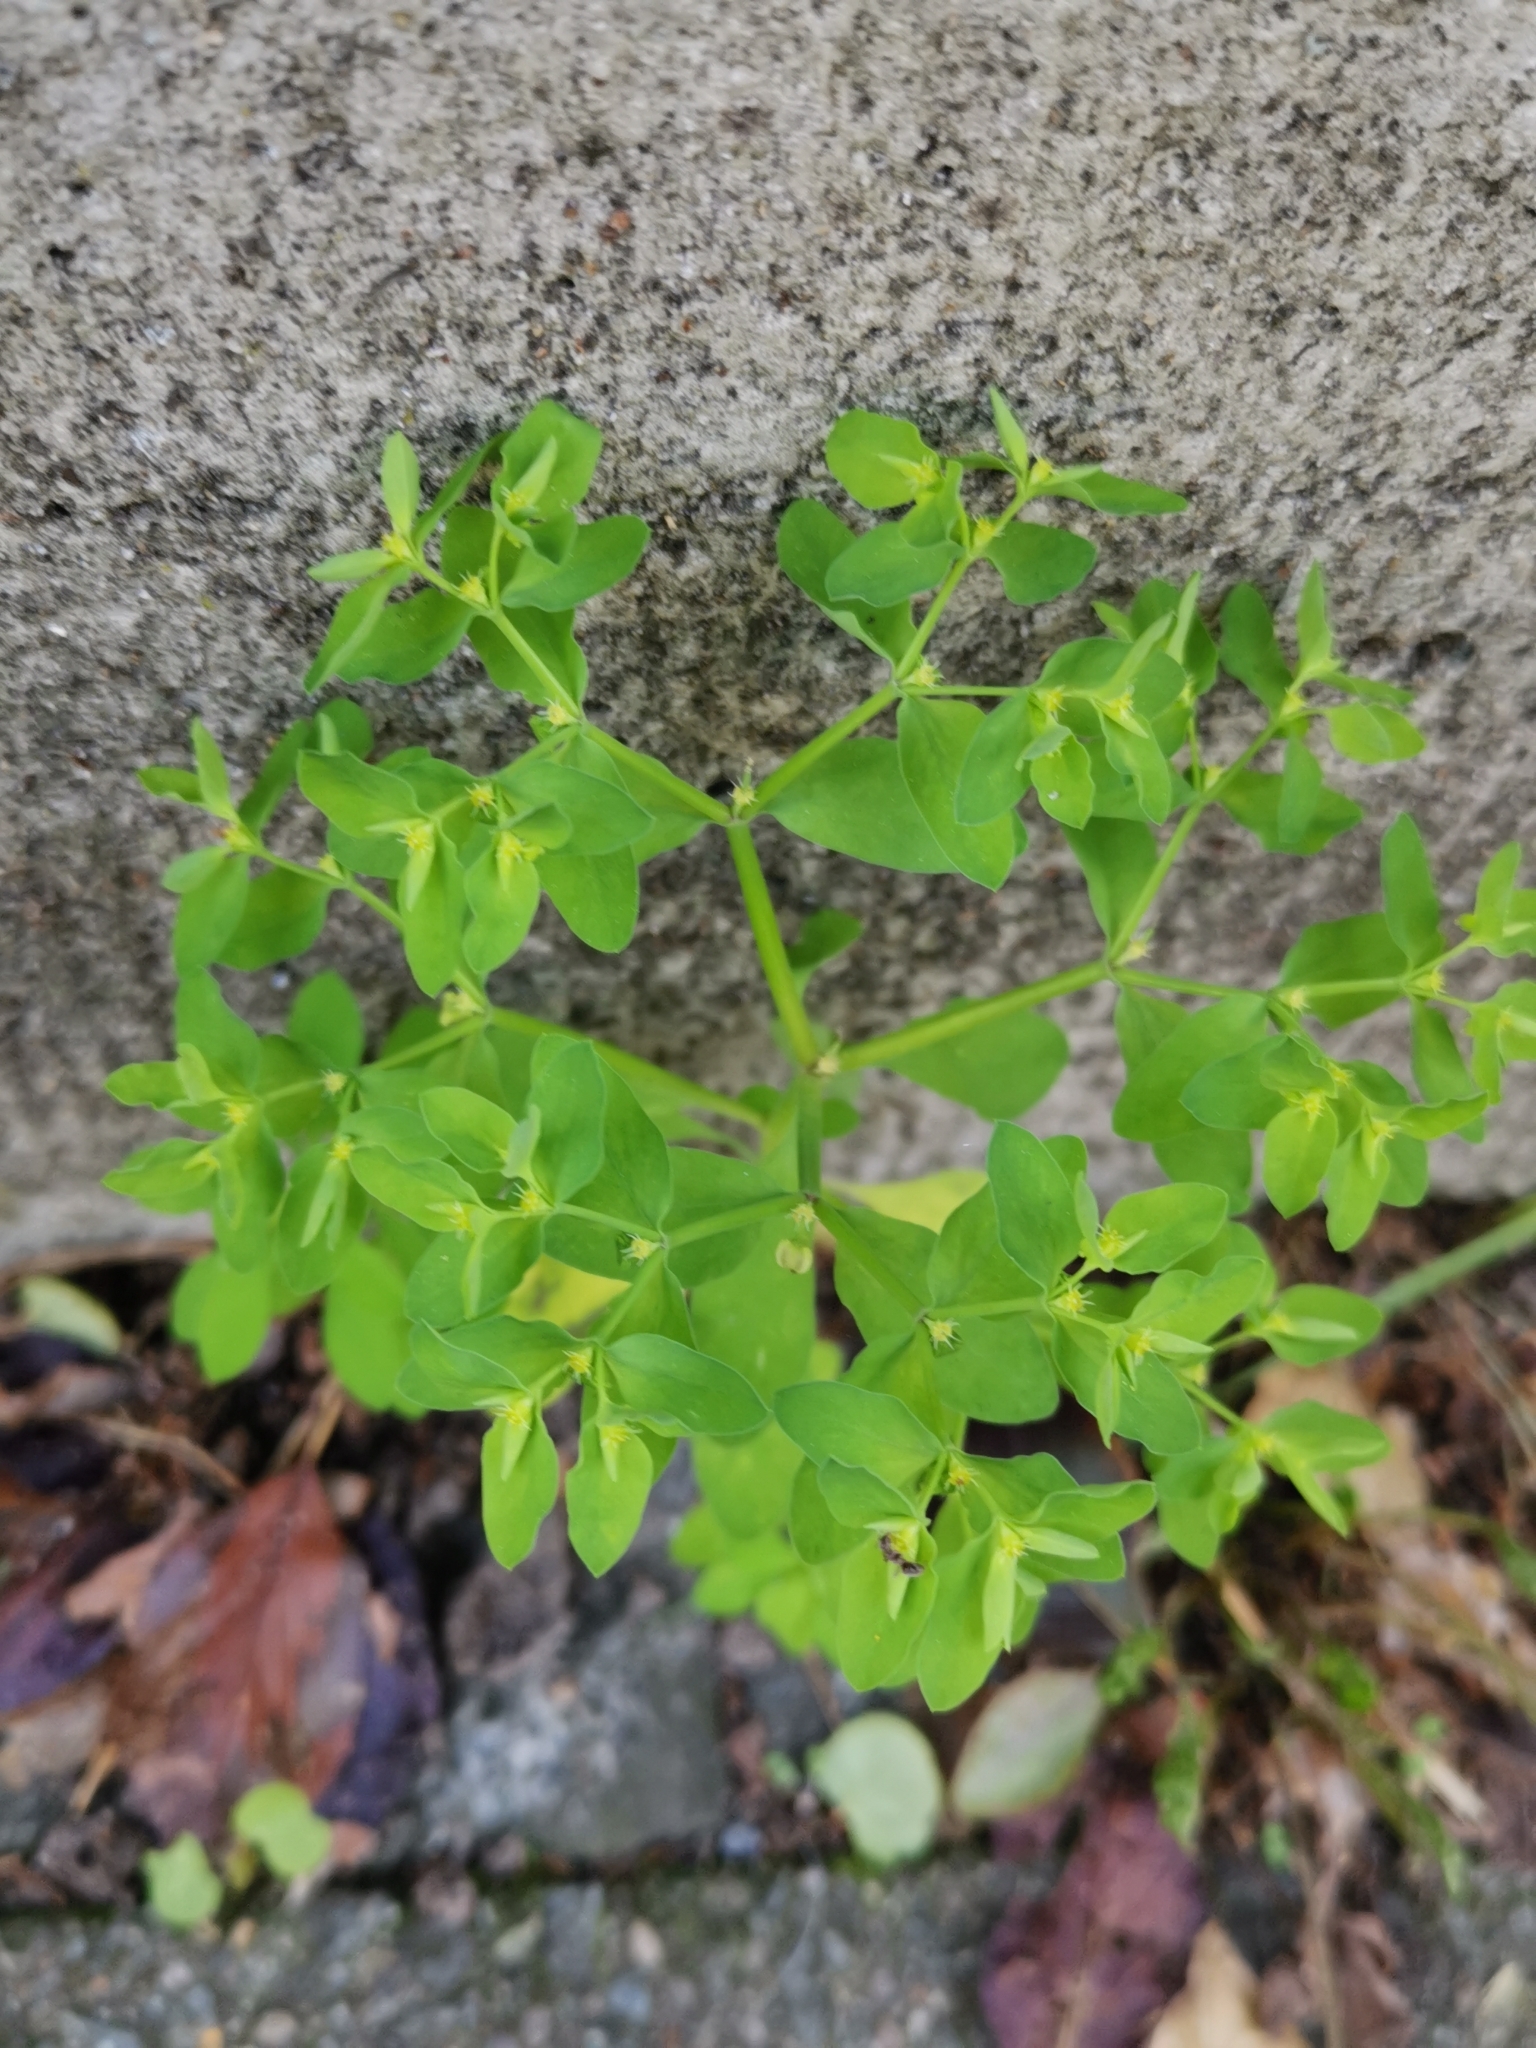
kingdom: Plantae
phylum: Tracheophyta
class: Magnoliopsida
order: Malpighiales
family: Euphorbiaceae
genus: Euphorbia
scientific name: Euphorbia peplus
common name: Petty spurge
